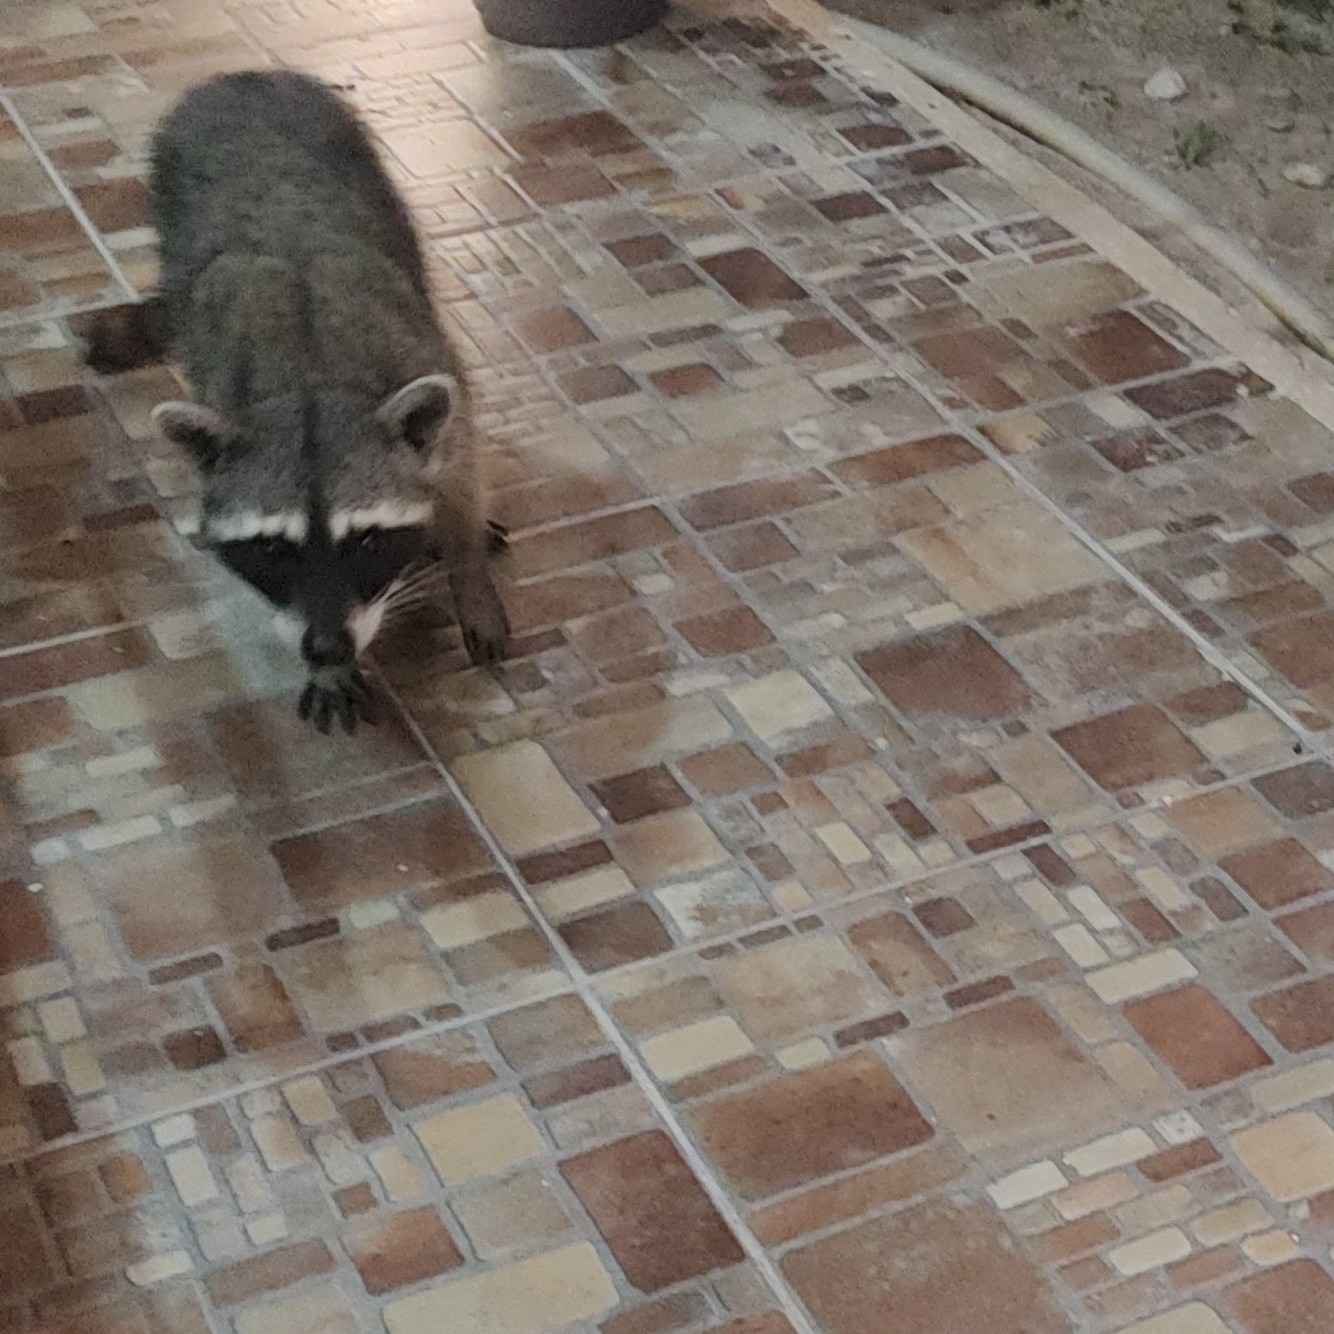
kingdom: Animalia
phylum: Chordata
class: Mammalia
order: Carnivora
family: Procyonidae
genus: Procyon
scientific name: Procyon lotor
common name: Raccoon
